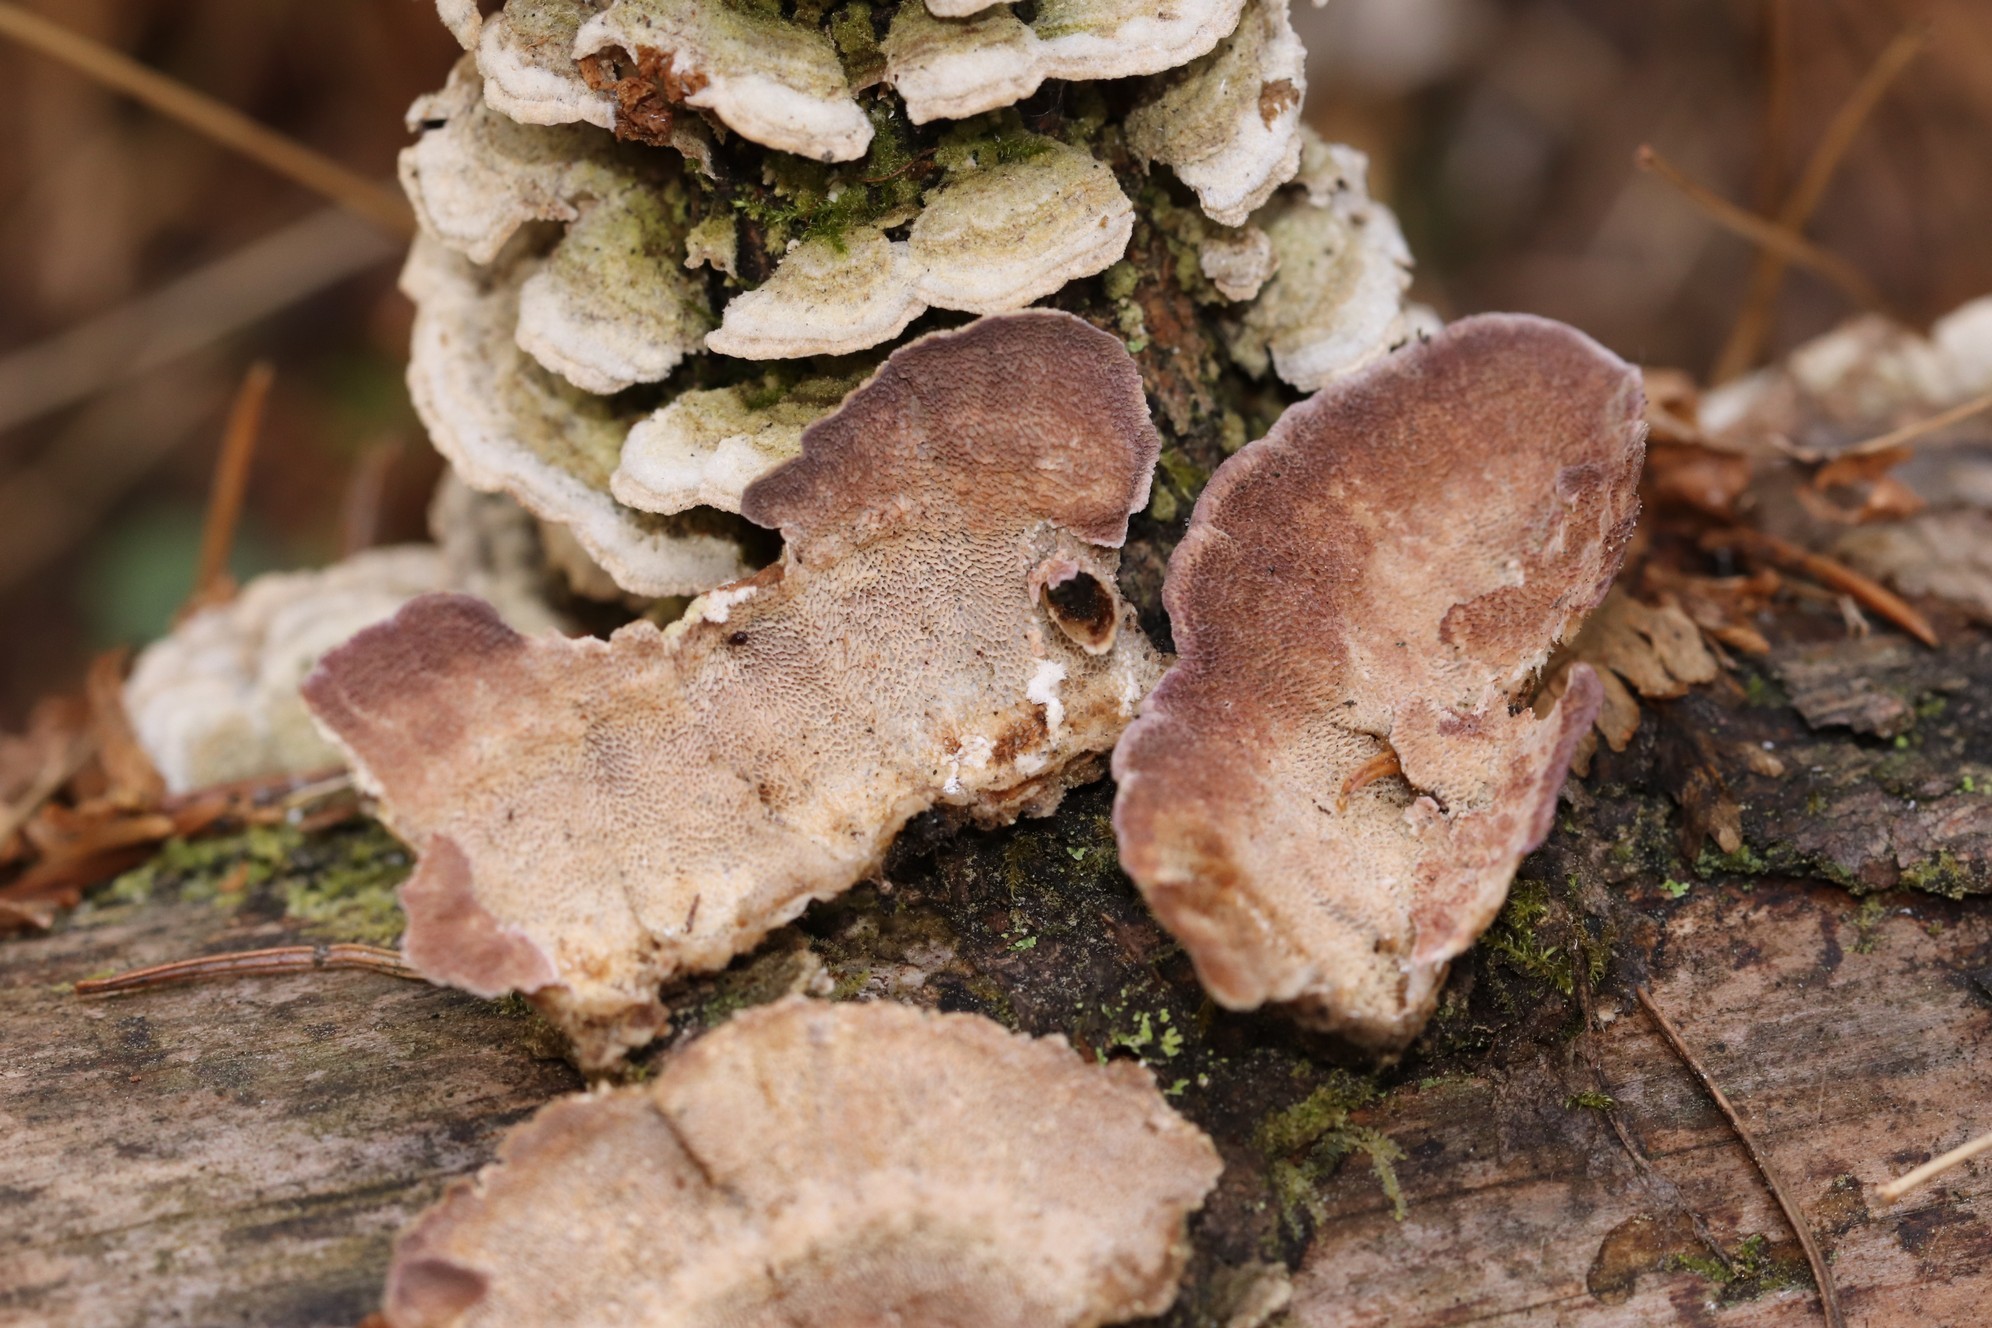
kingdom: Fungi
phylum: Basidiomycota
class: Agaricomycetes
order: Hymenochaetales
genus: Trichaptum
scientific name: Trichaptum abietinum
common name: Purplepore bracket
